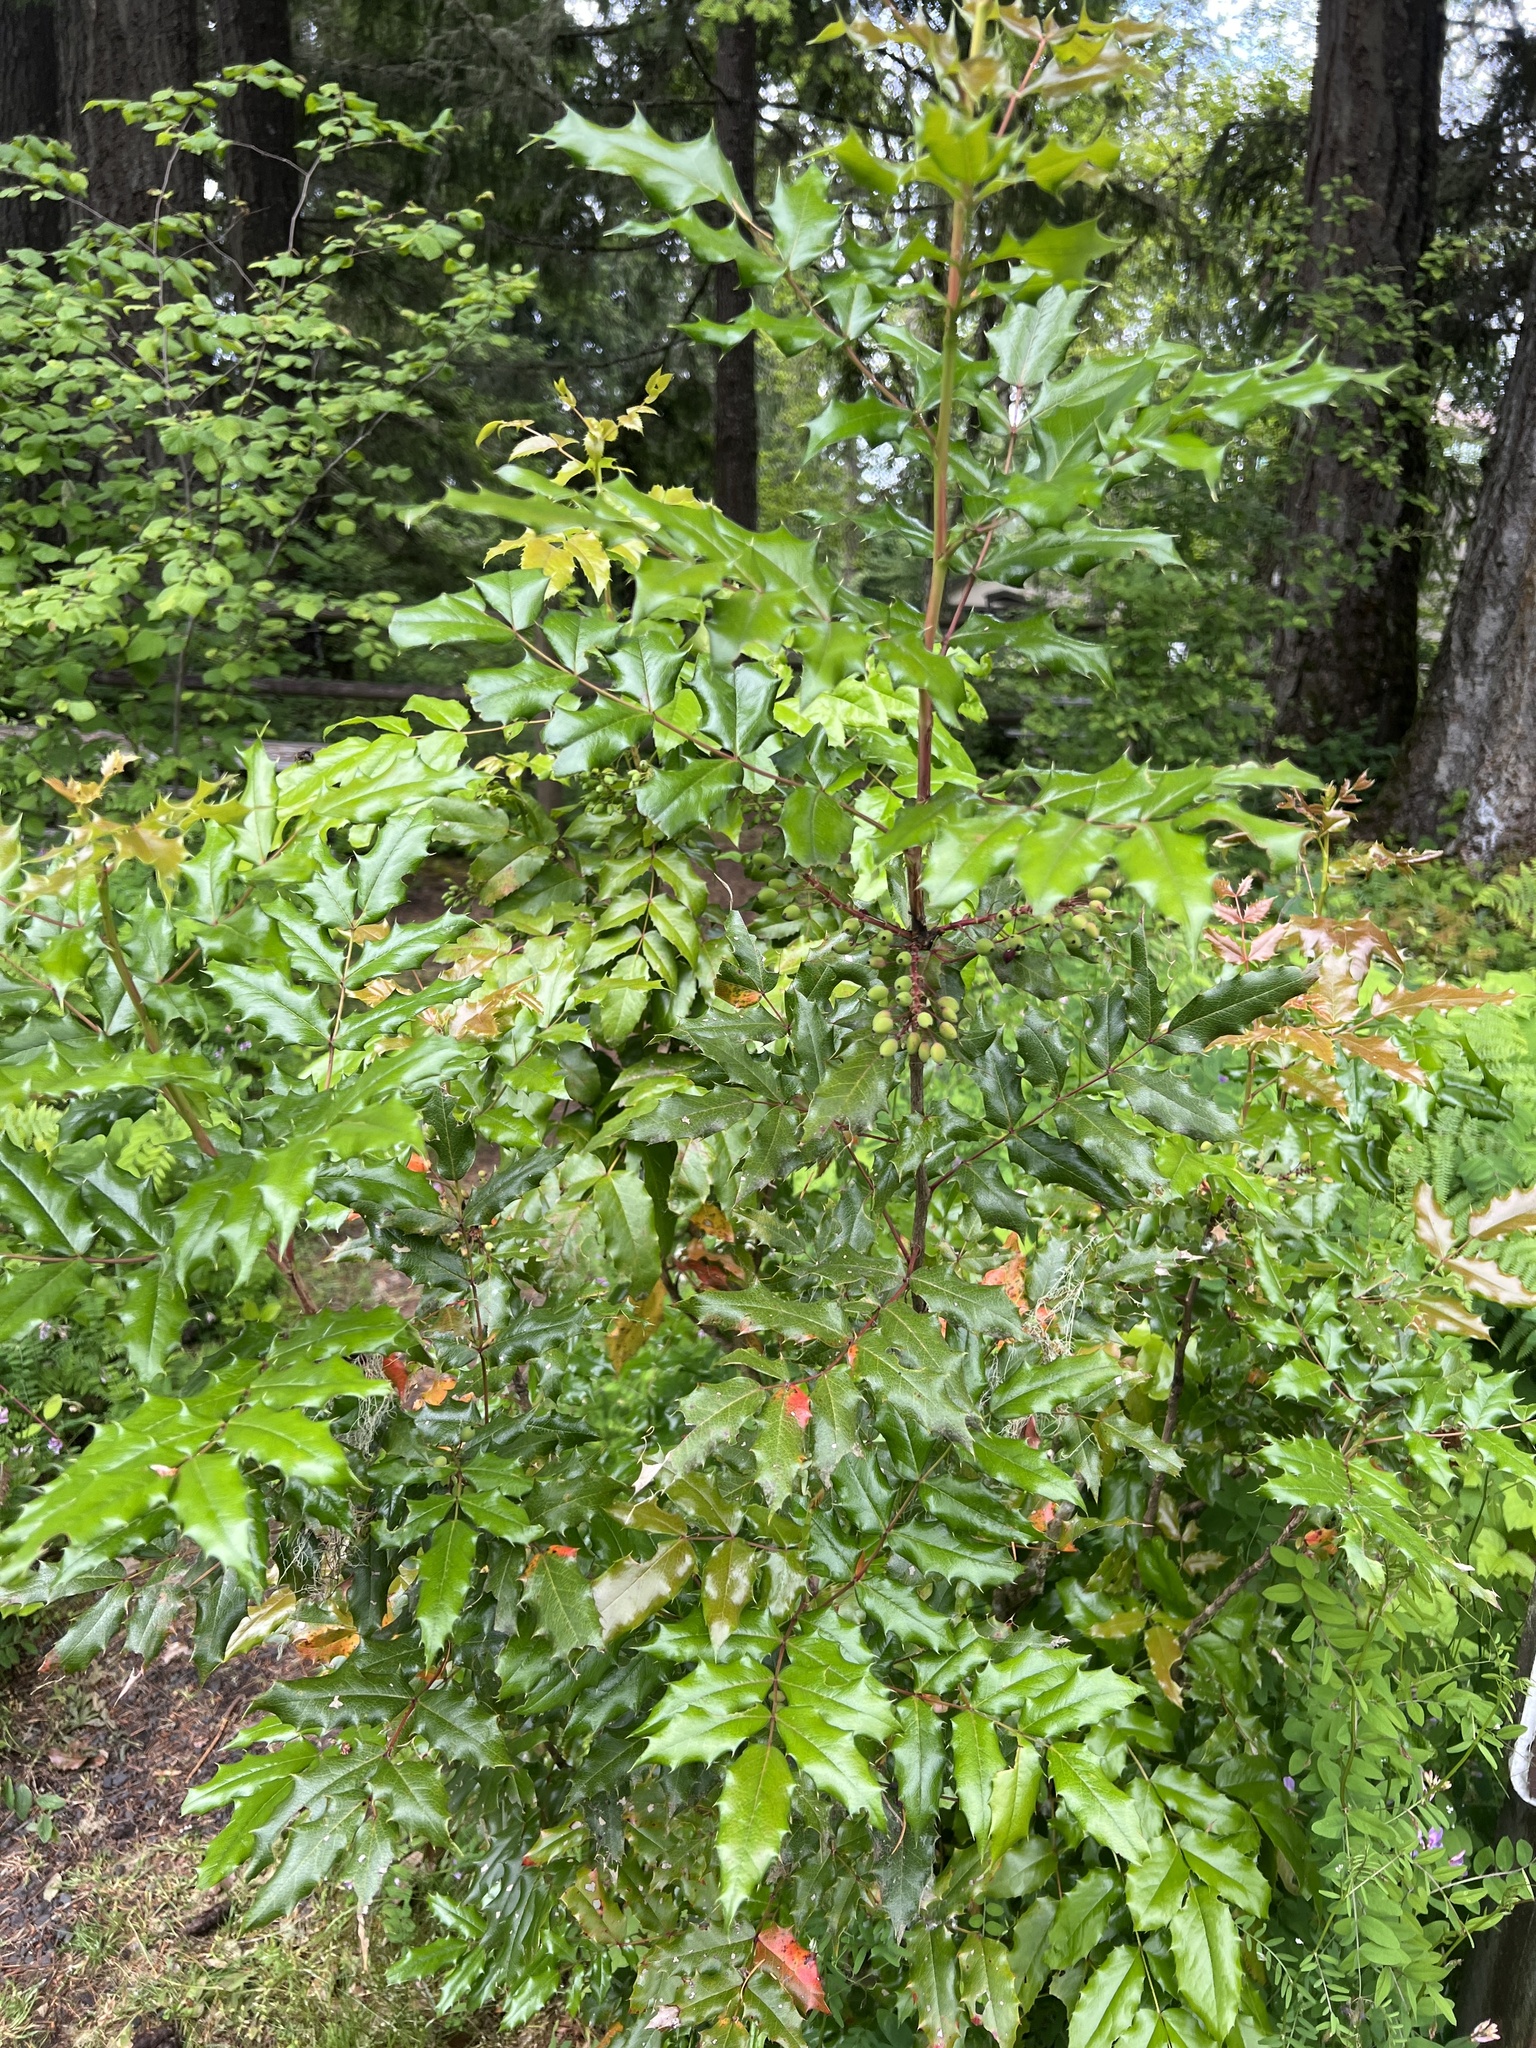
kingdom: Plantae
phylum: Tracheophyta
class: Magnoliopsida
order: Ranunculales
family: Berberidaceae
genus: Mahonia
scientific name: Mahonia aquifolium
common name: Oregon-grape
